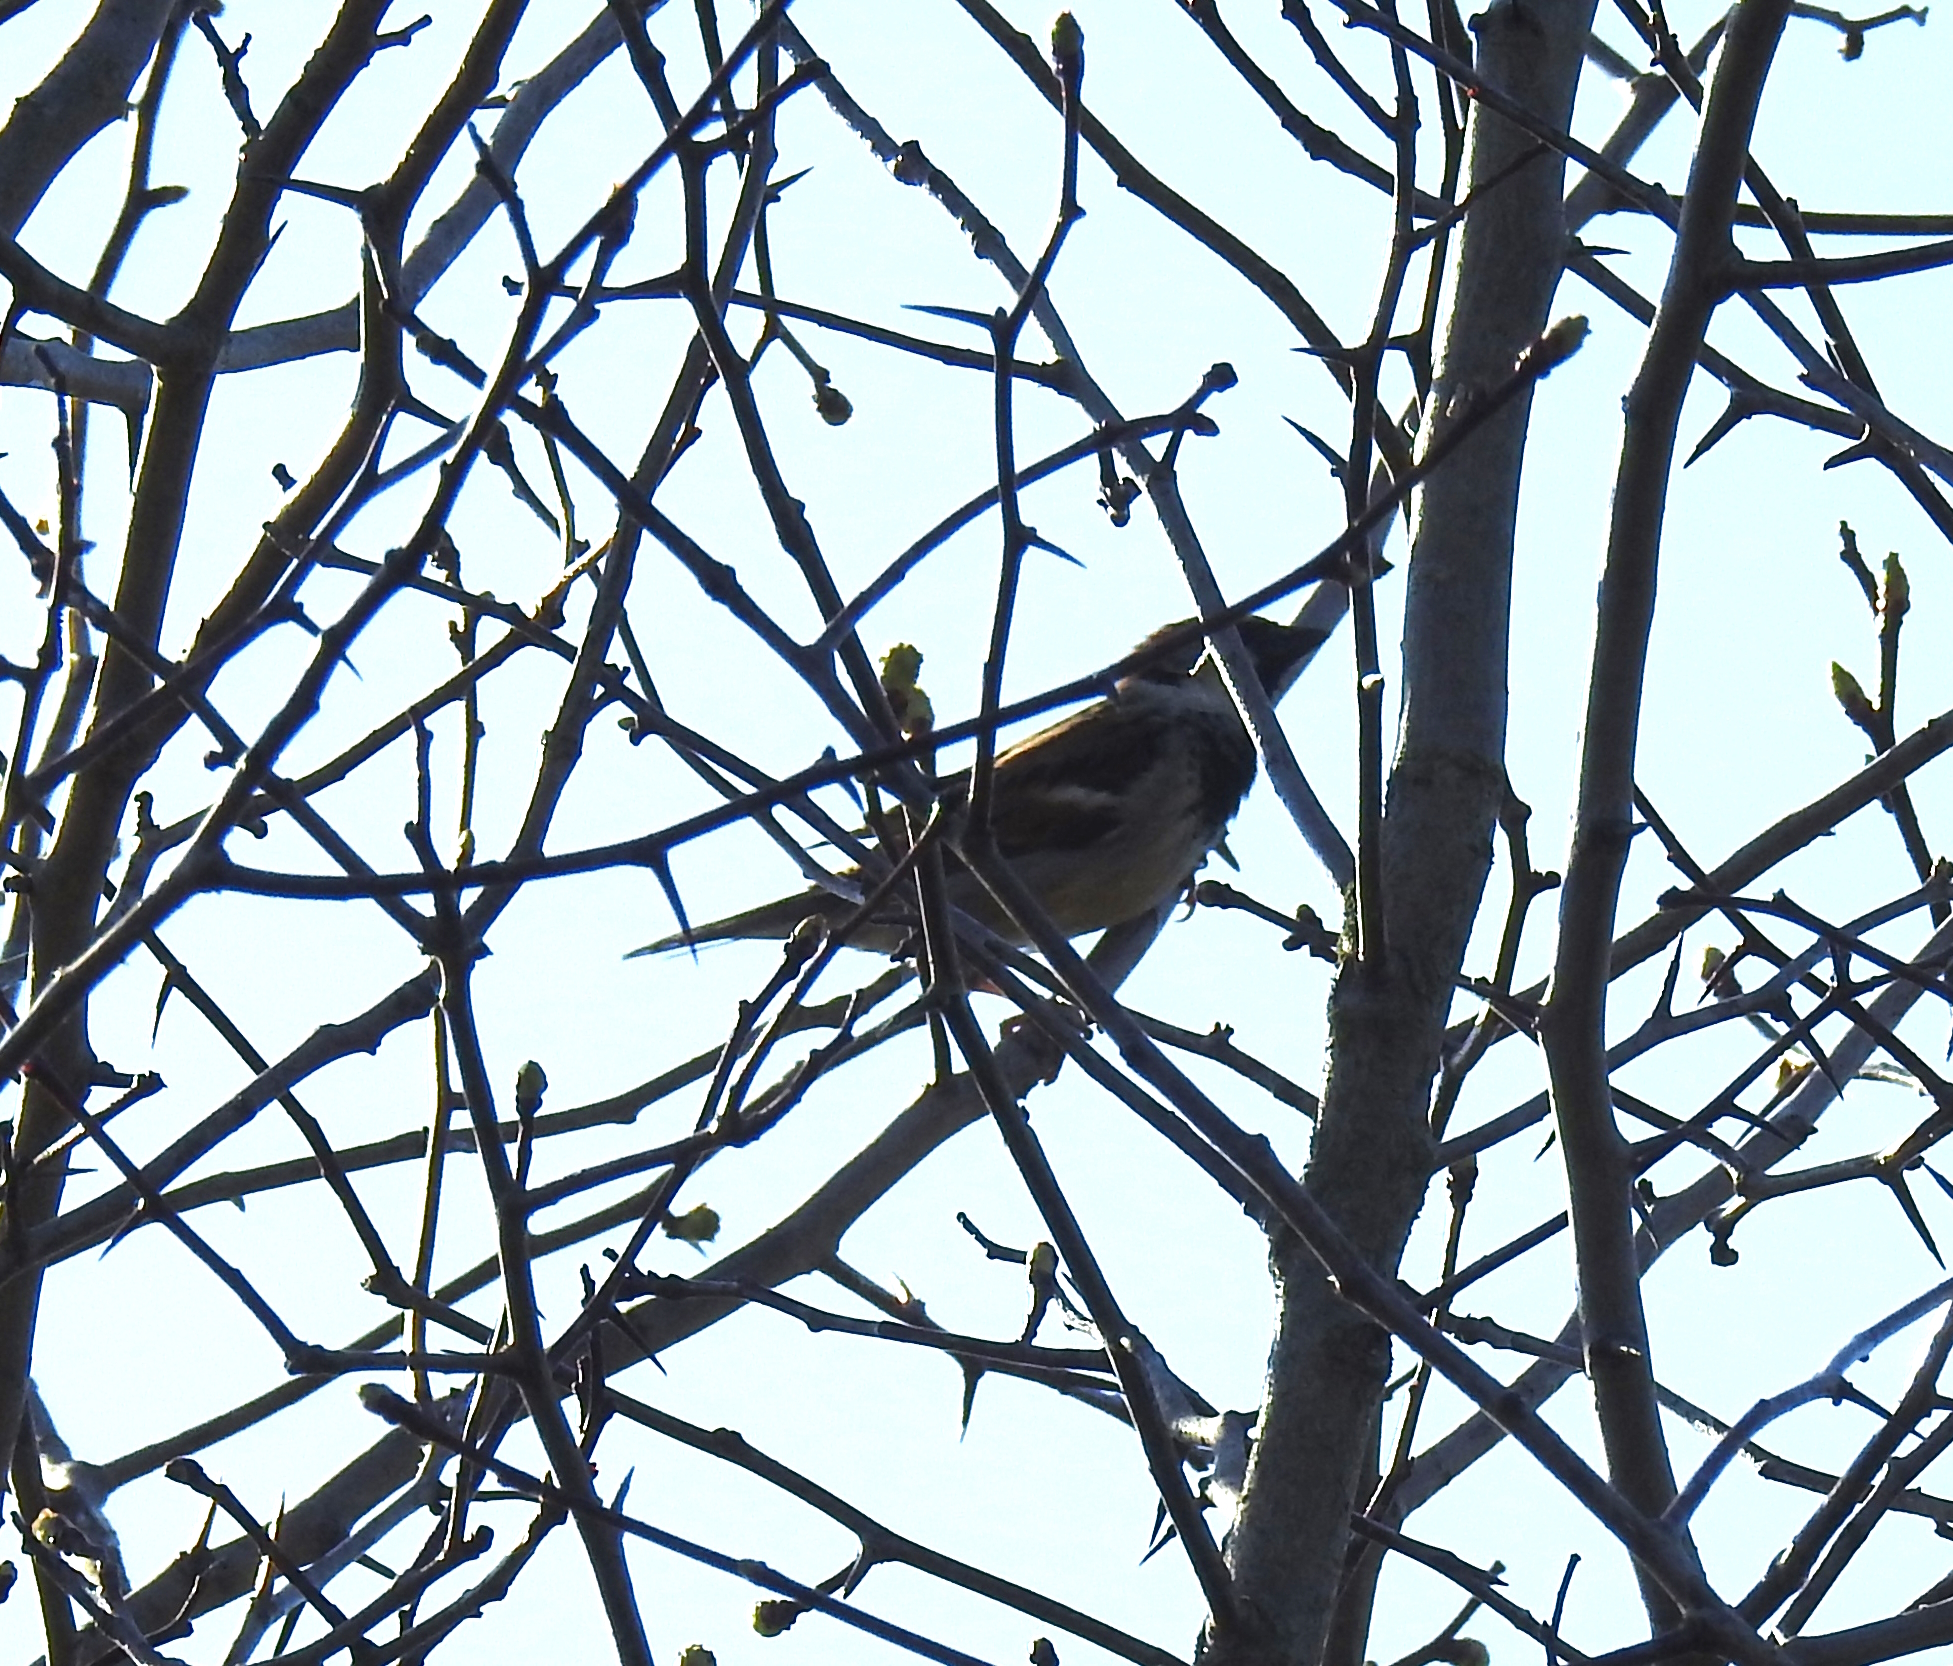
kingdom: Animalia
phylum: Chordata
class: Aves
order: Passeriformes
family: Passeridae
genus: Passer
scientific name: Passer domesticus
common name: House sparrow
